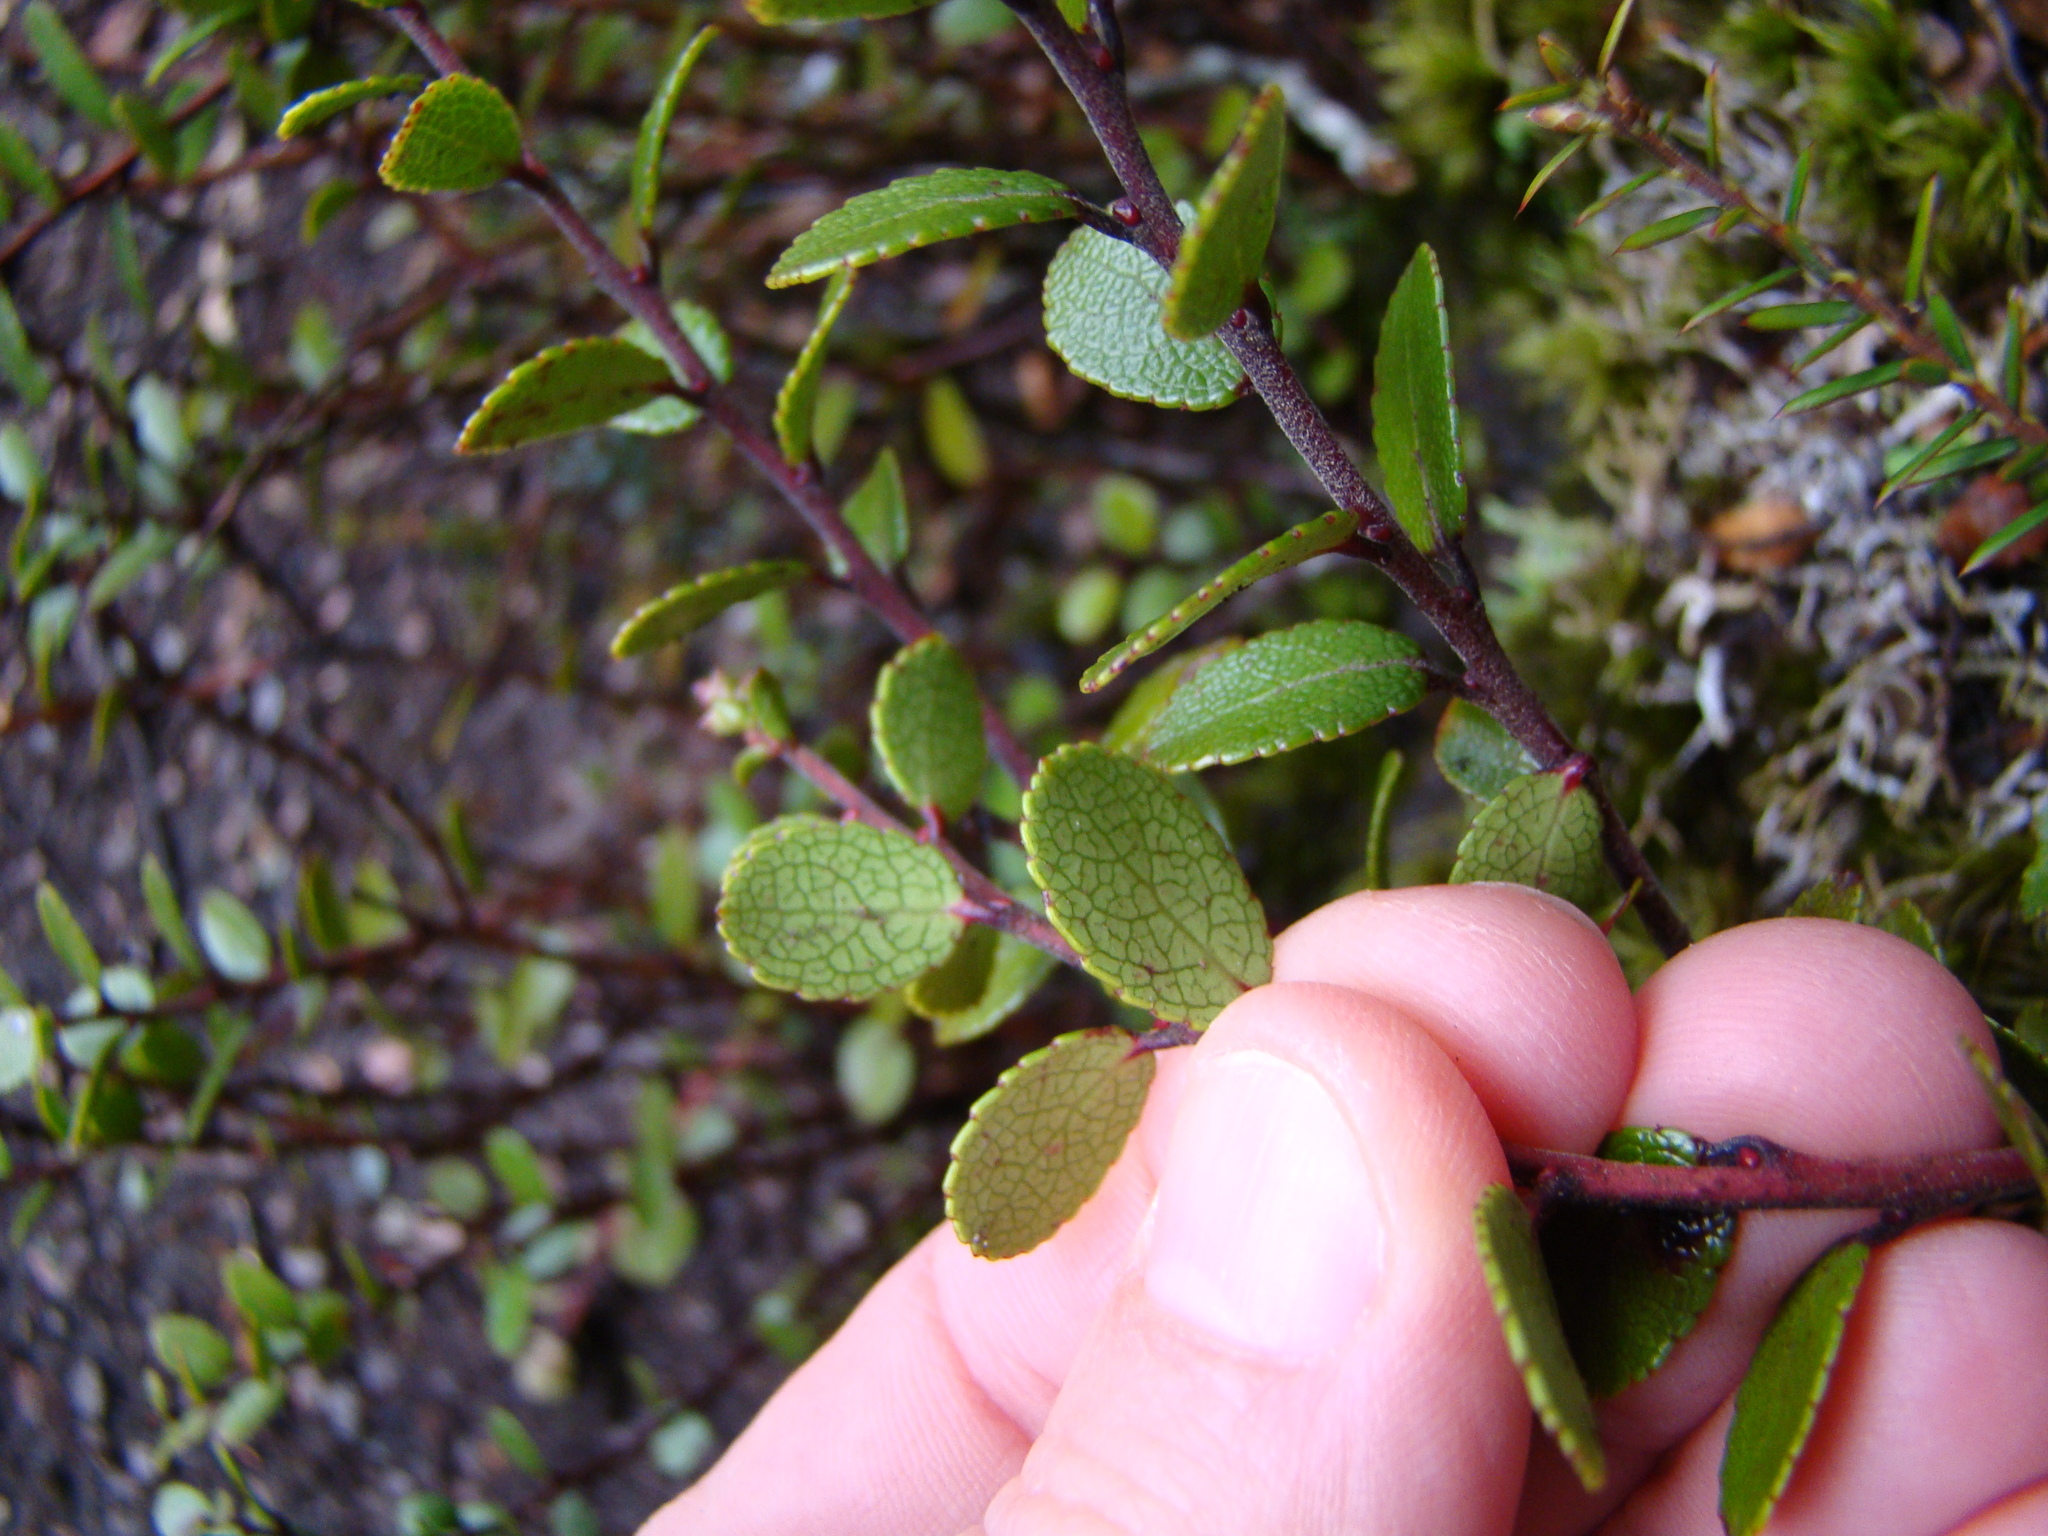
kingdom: Plantae
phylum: Tracheophyta
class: Magnoliopsida
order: Ericales
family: Ericaceae
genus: Gaultheria
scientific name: Gaultheria colensoi
